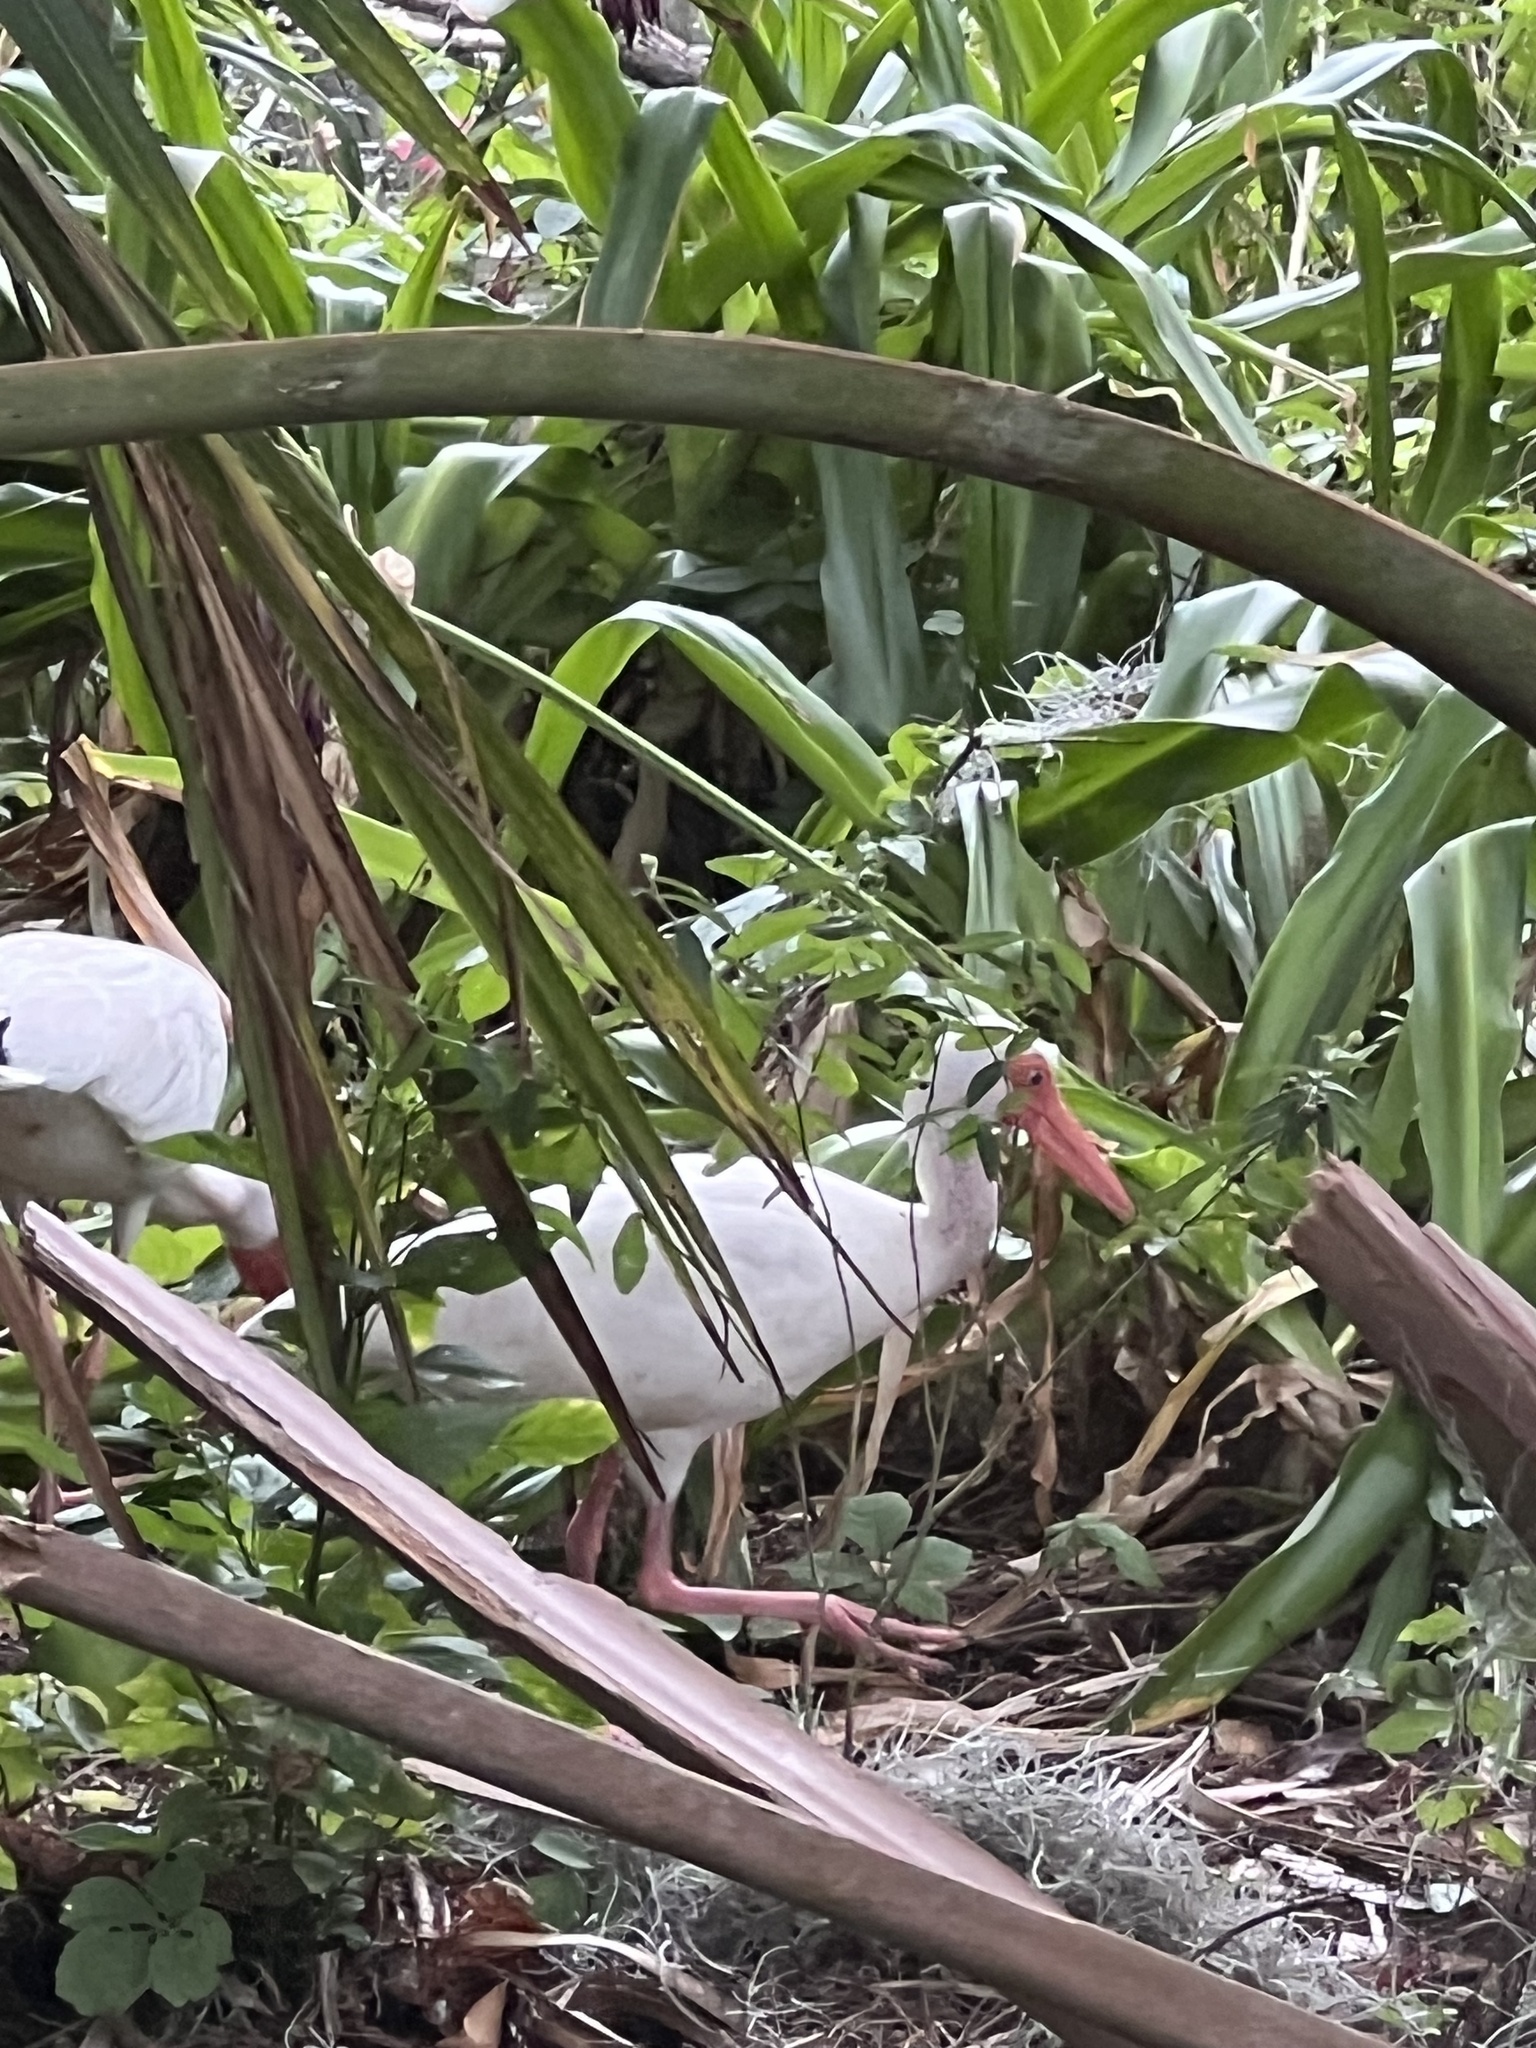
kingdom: Animalia
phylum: Chordata
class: Aves
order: Pelecaniformes
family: Threskiornithidae
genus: Eudocimus
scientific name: Eudocimus albus
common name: White ibis
